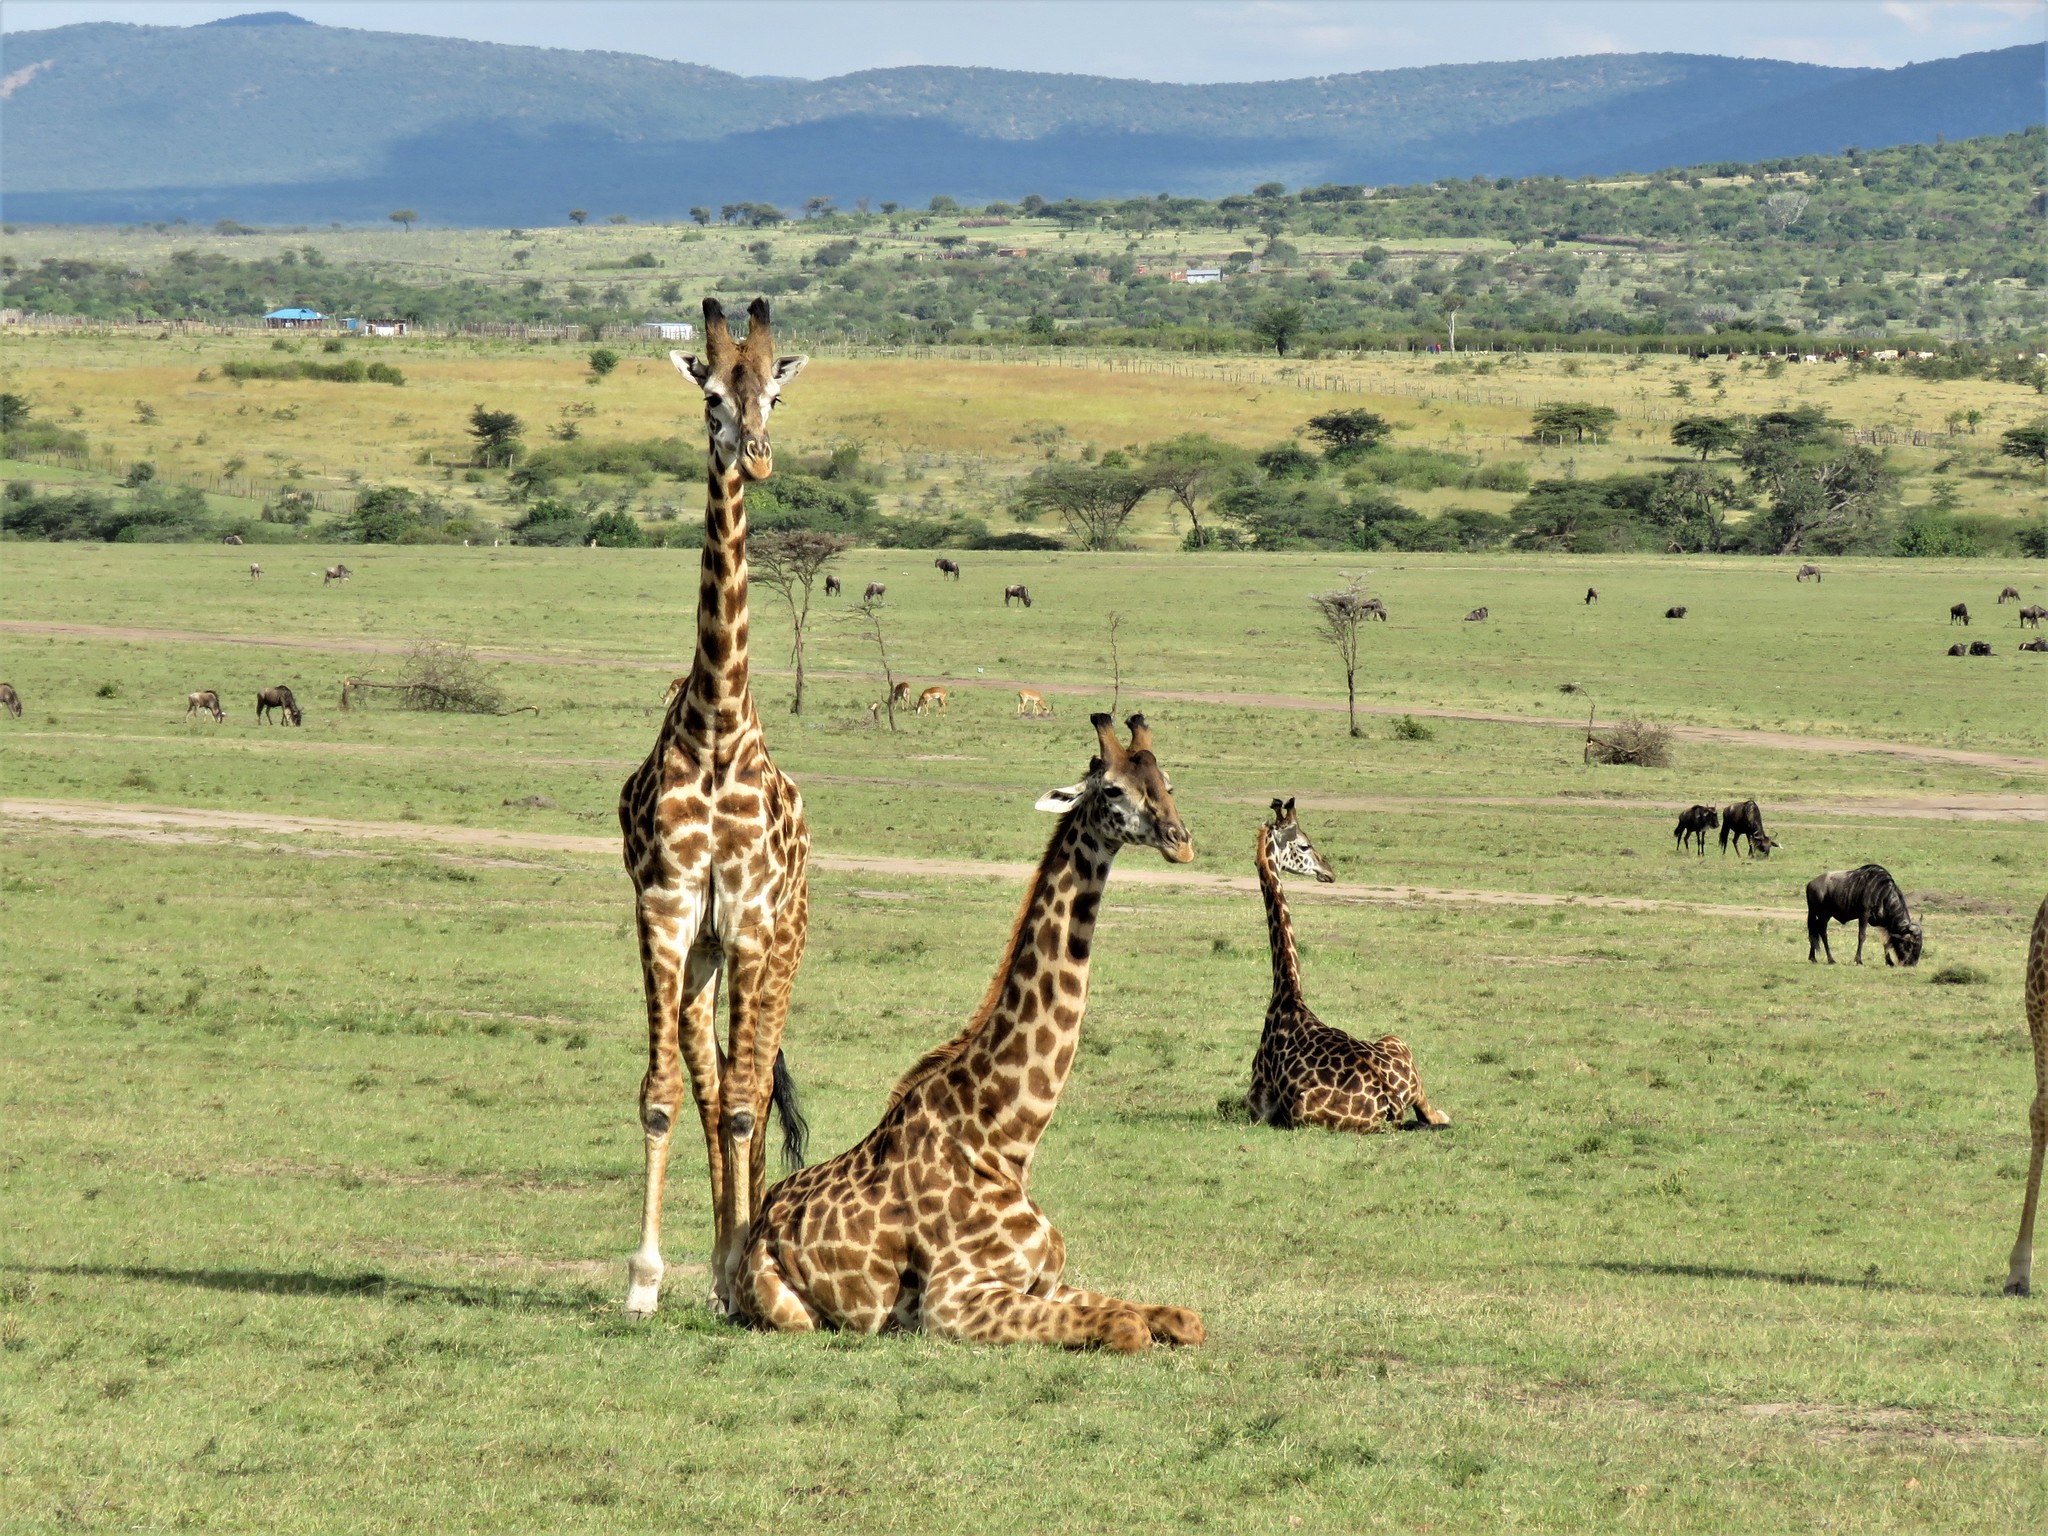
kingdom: Animalia
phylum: Chordata
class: Mammalia
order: Artiodactyla
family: Giraffidae
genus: Giraffa
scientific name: Giraffa tippelskirchi
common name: Masai giraffe
